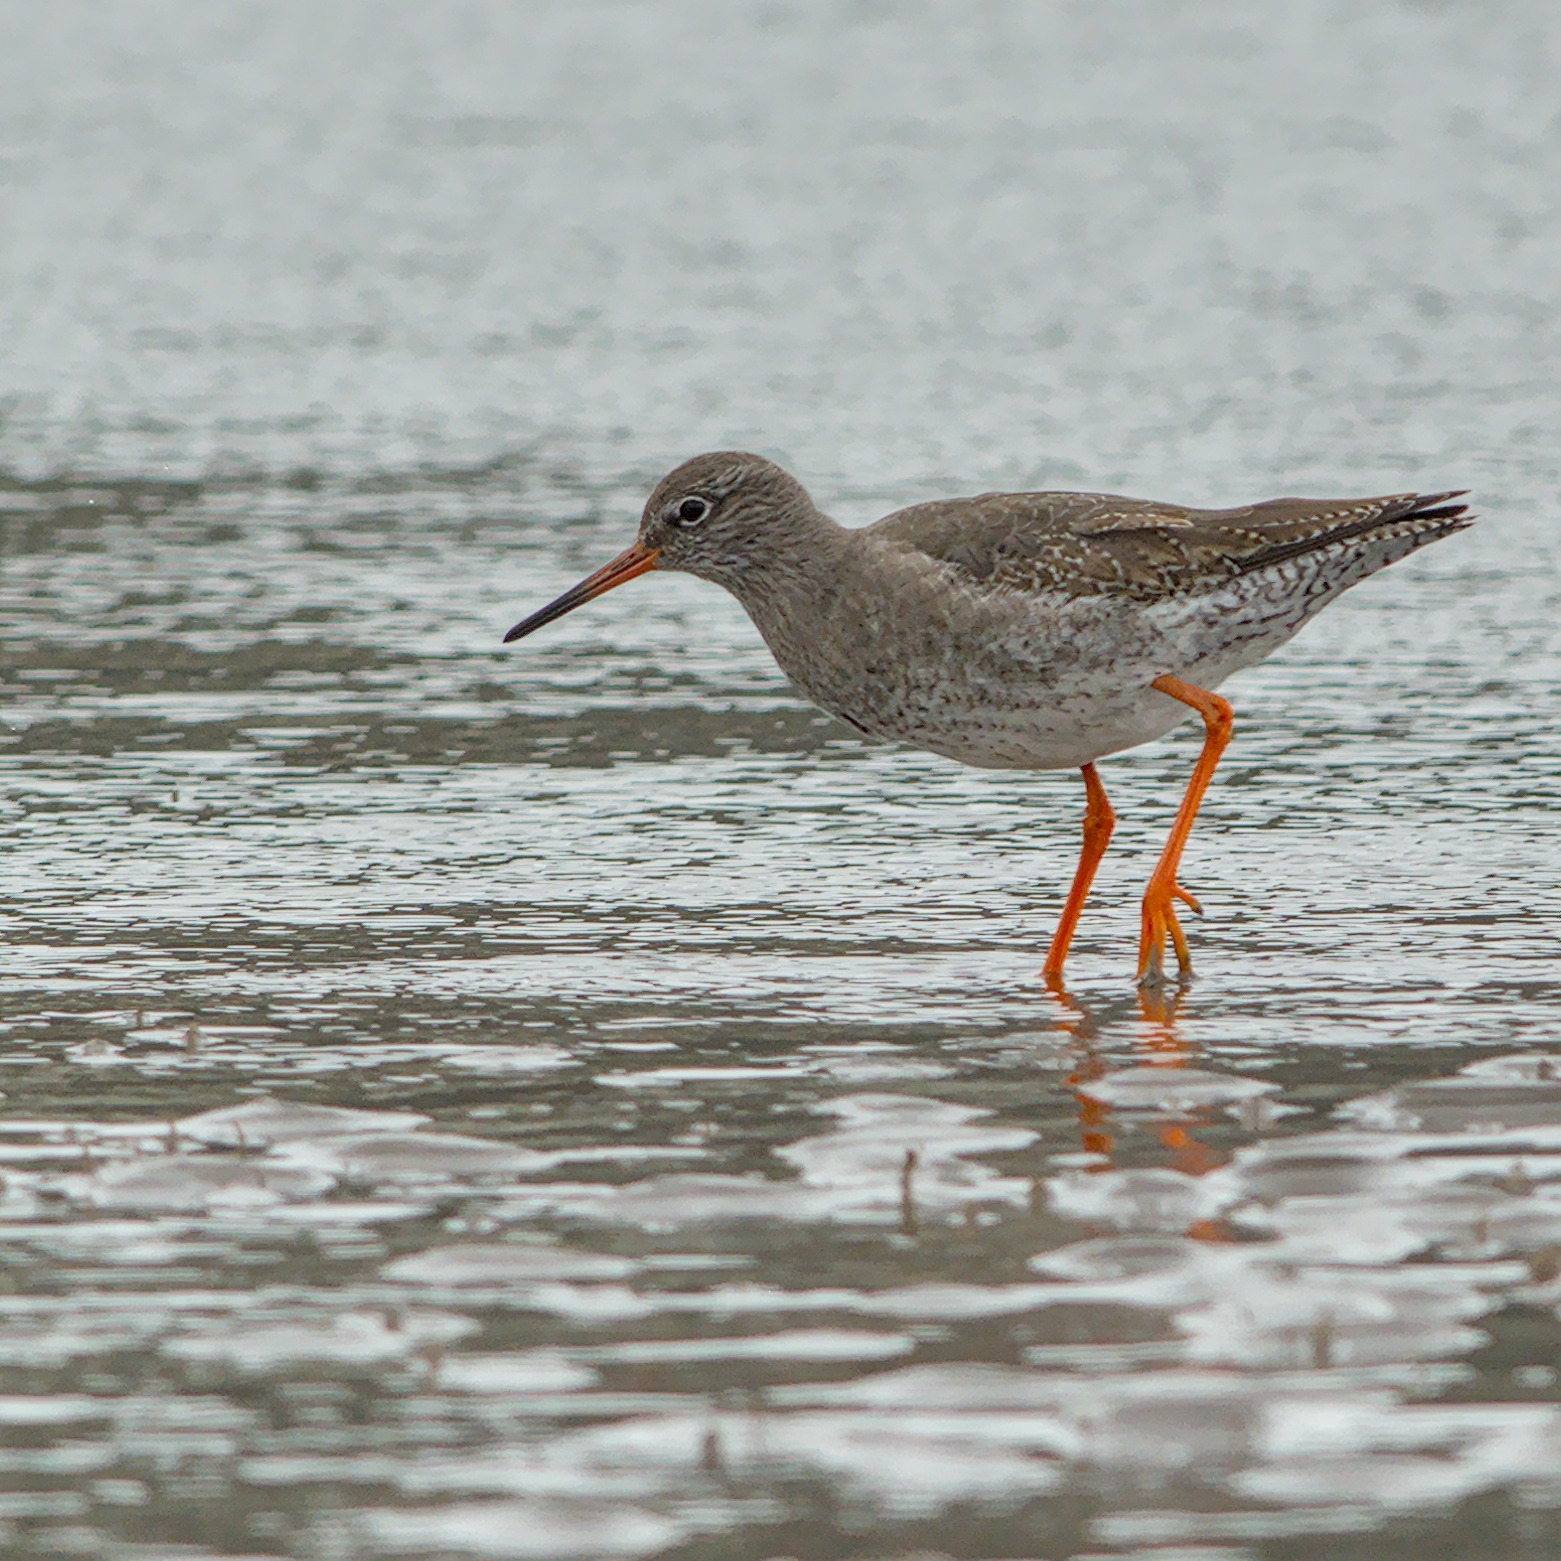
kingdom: Animalia
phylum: Chordata
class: Aves
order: Charadriiformes
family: Scolopacidae
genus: Tringa
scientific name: Tringa totanus
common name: Common redshank
